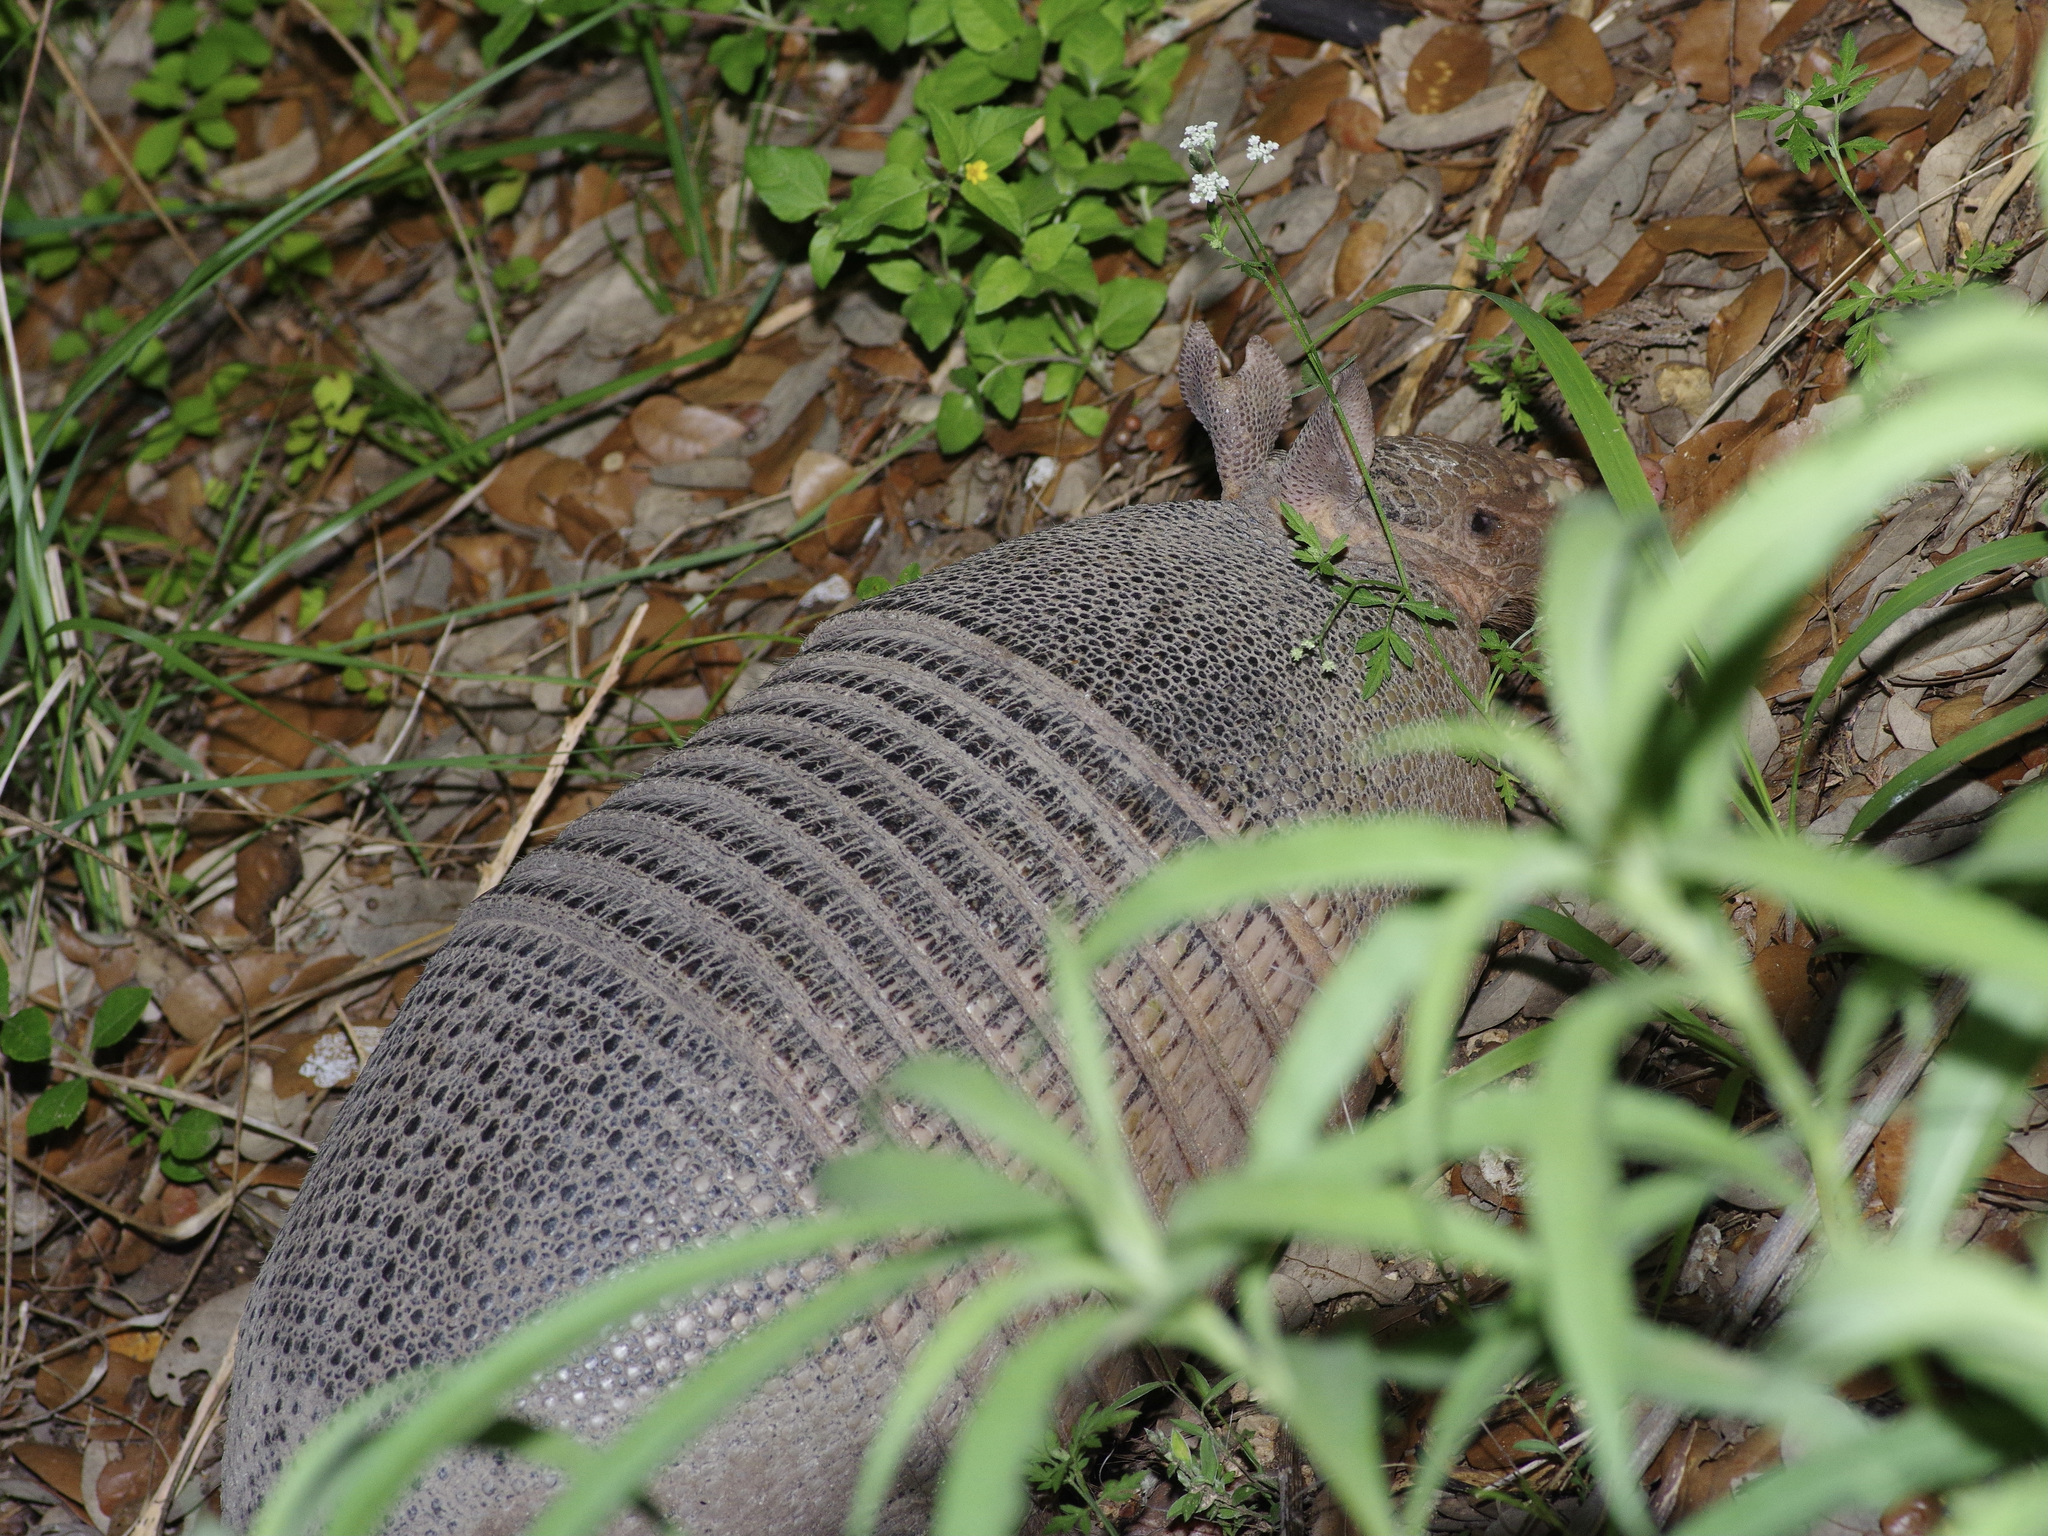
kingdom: Animalia
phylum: Chordata
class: Mammalia
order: Cingulata
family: Dasypodidae
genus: Dasypus
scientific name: Dasypus novemcinctus
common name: Nine-banded armadillo
